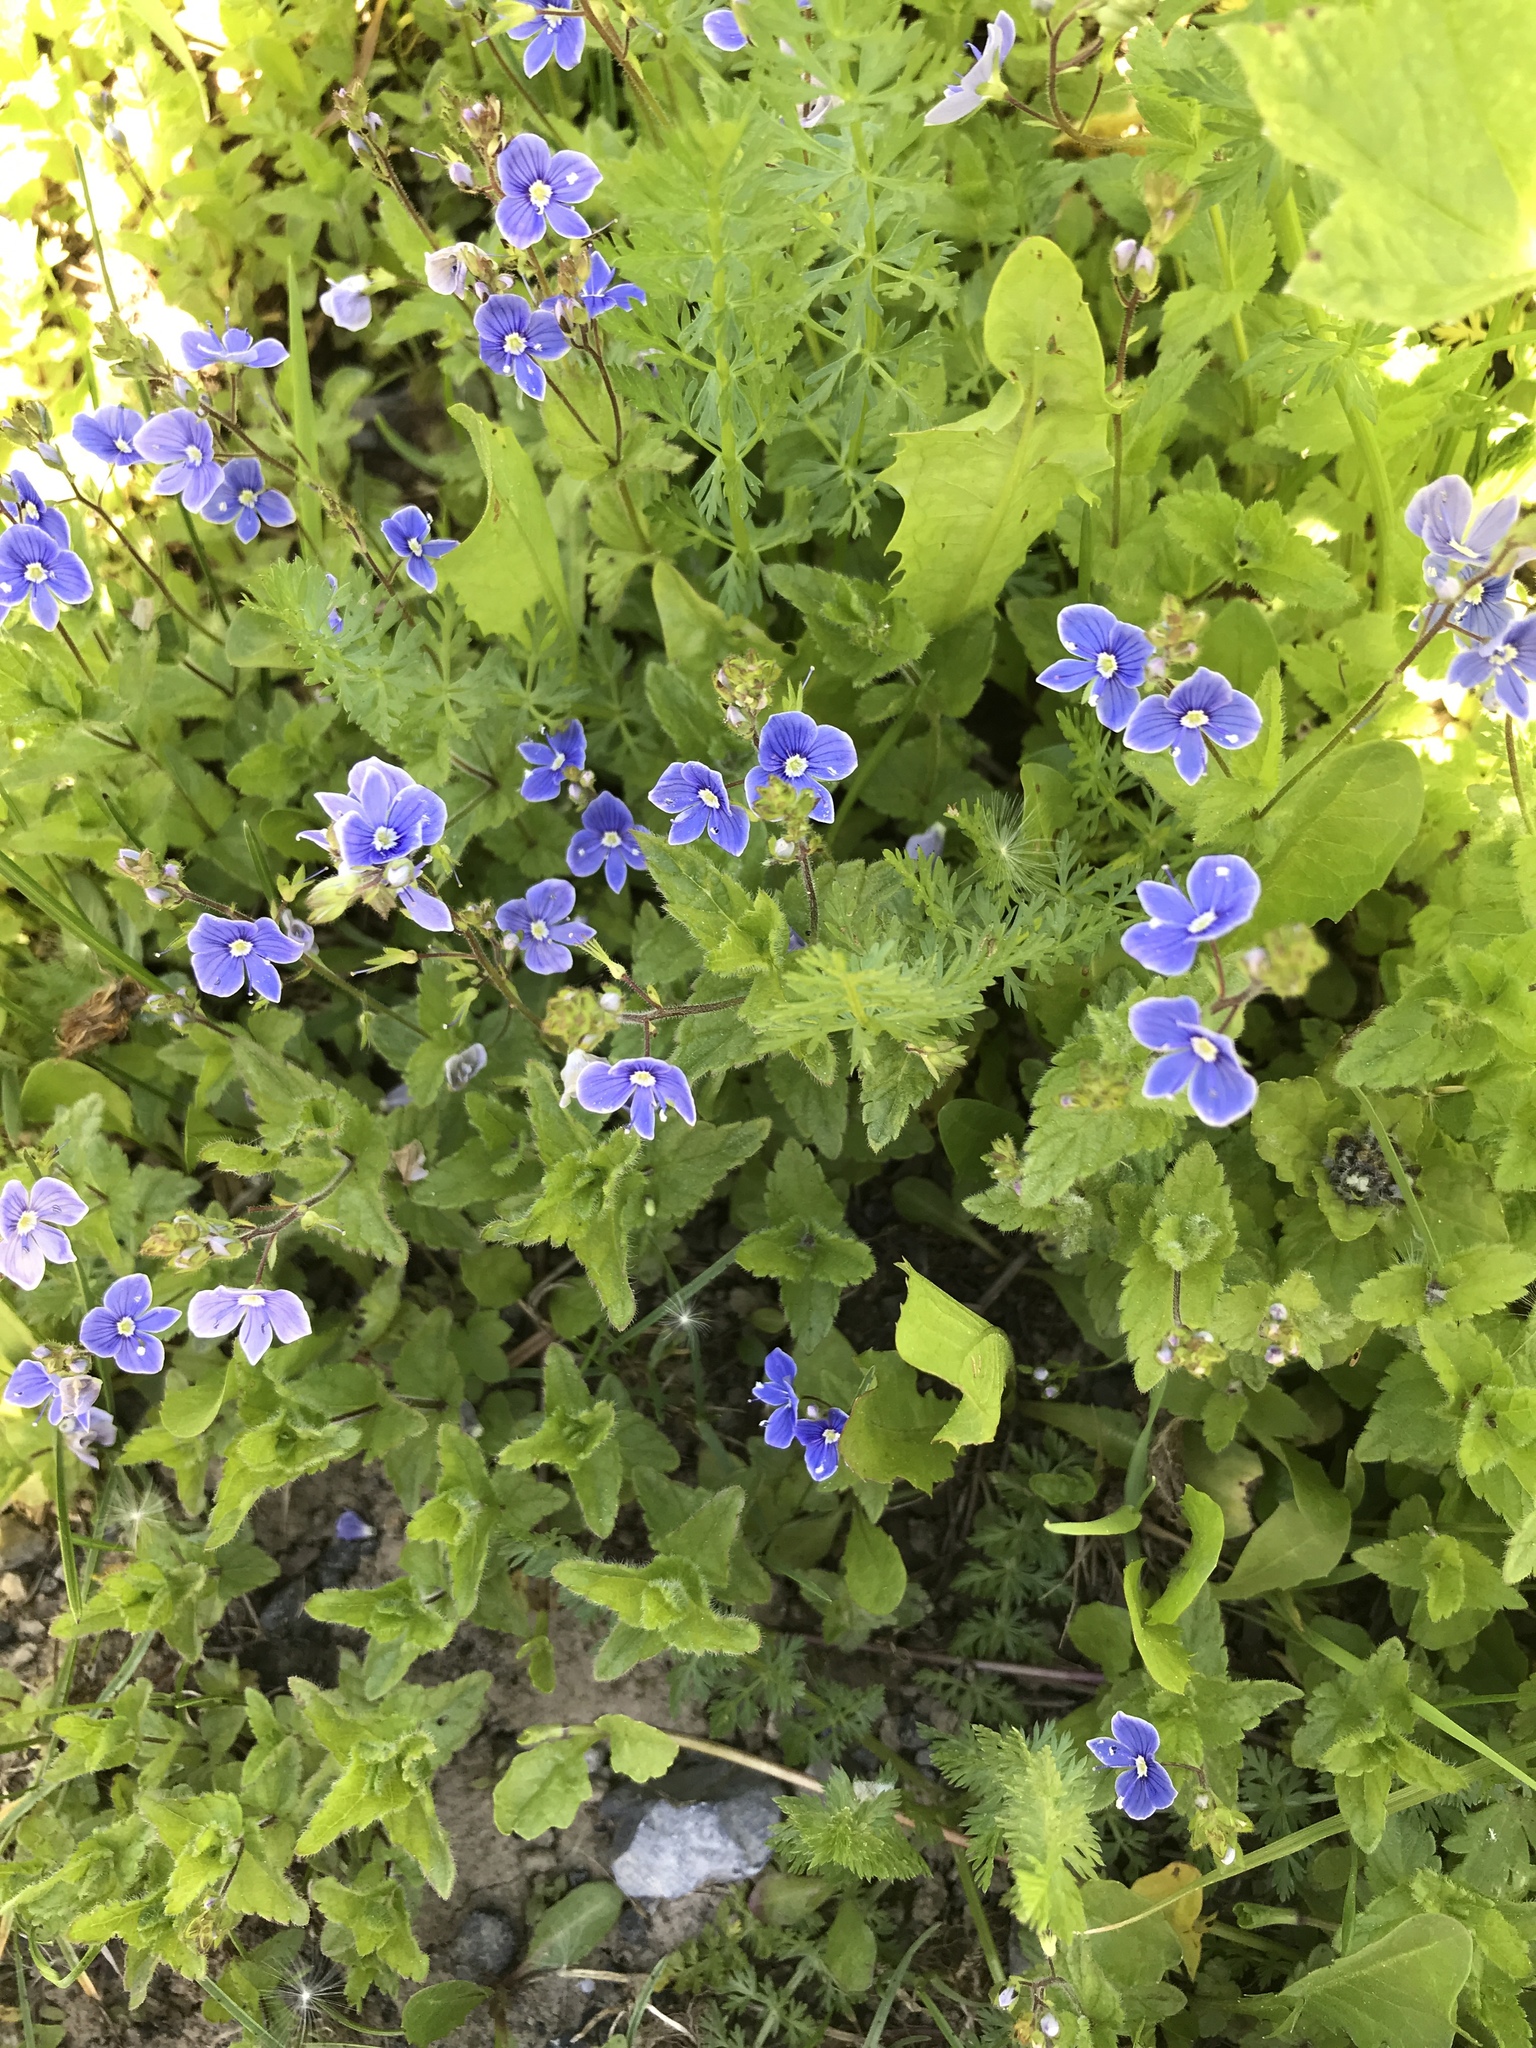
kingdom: Plantae
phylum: Tracheophyta
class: Magnoliopsida
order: Lamiales
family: Plantaginaceae
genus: Veronica
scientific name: Veronica chamaedrys
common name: Germander speedwell
